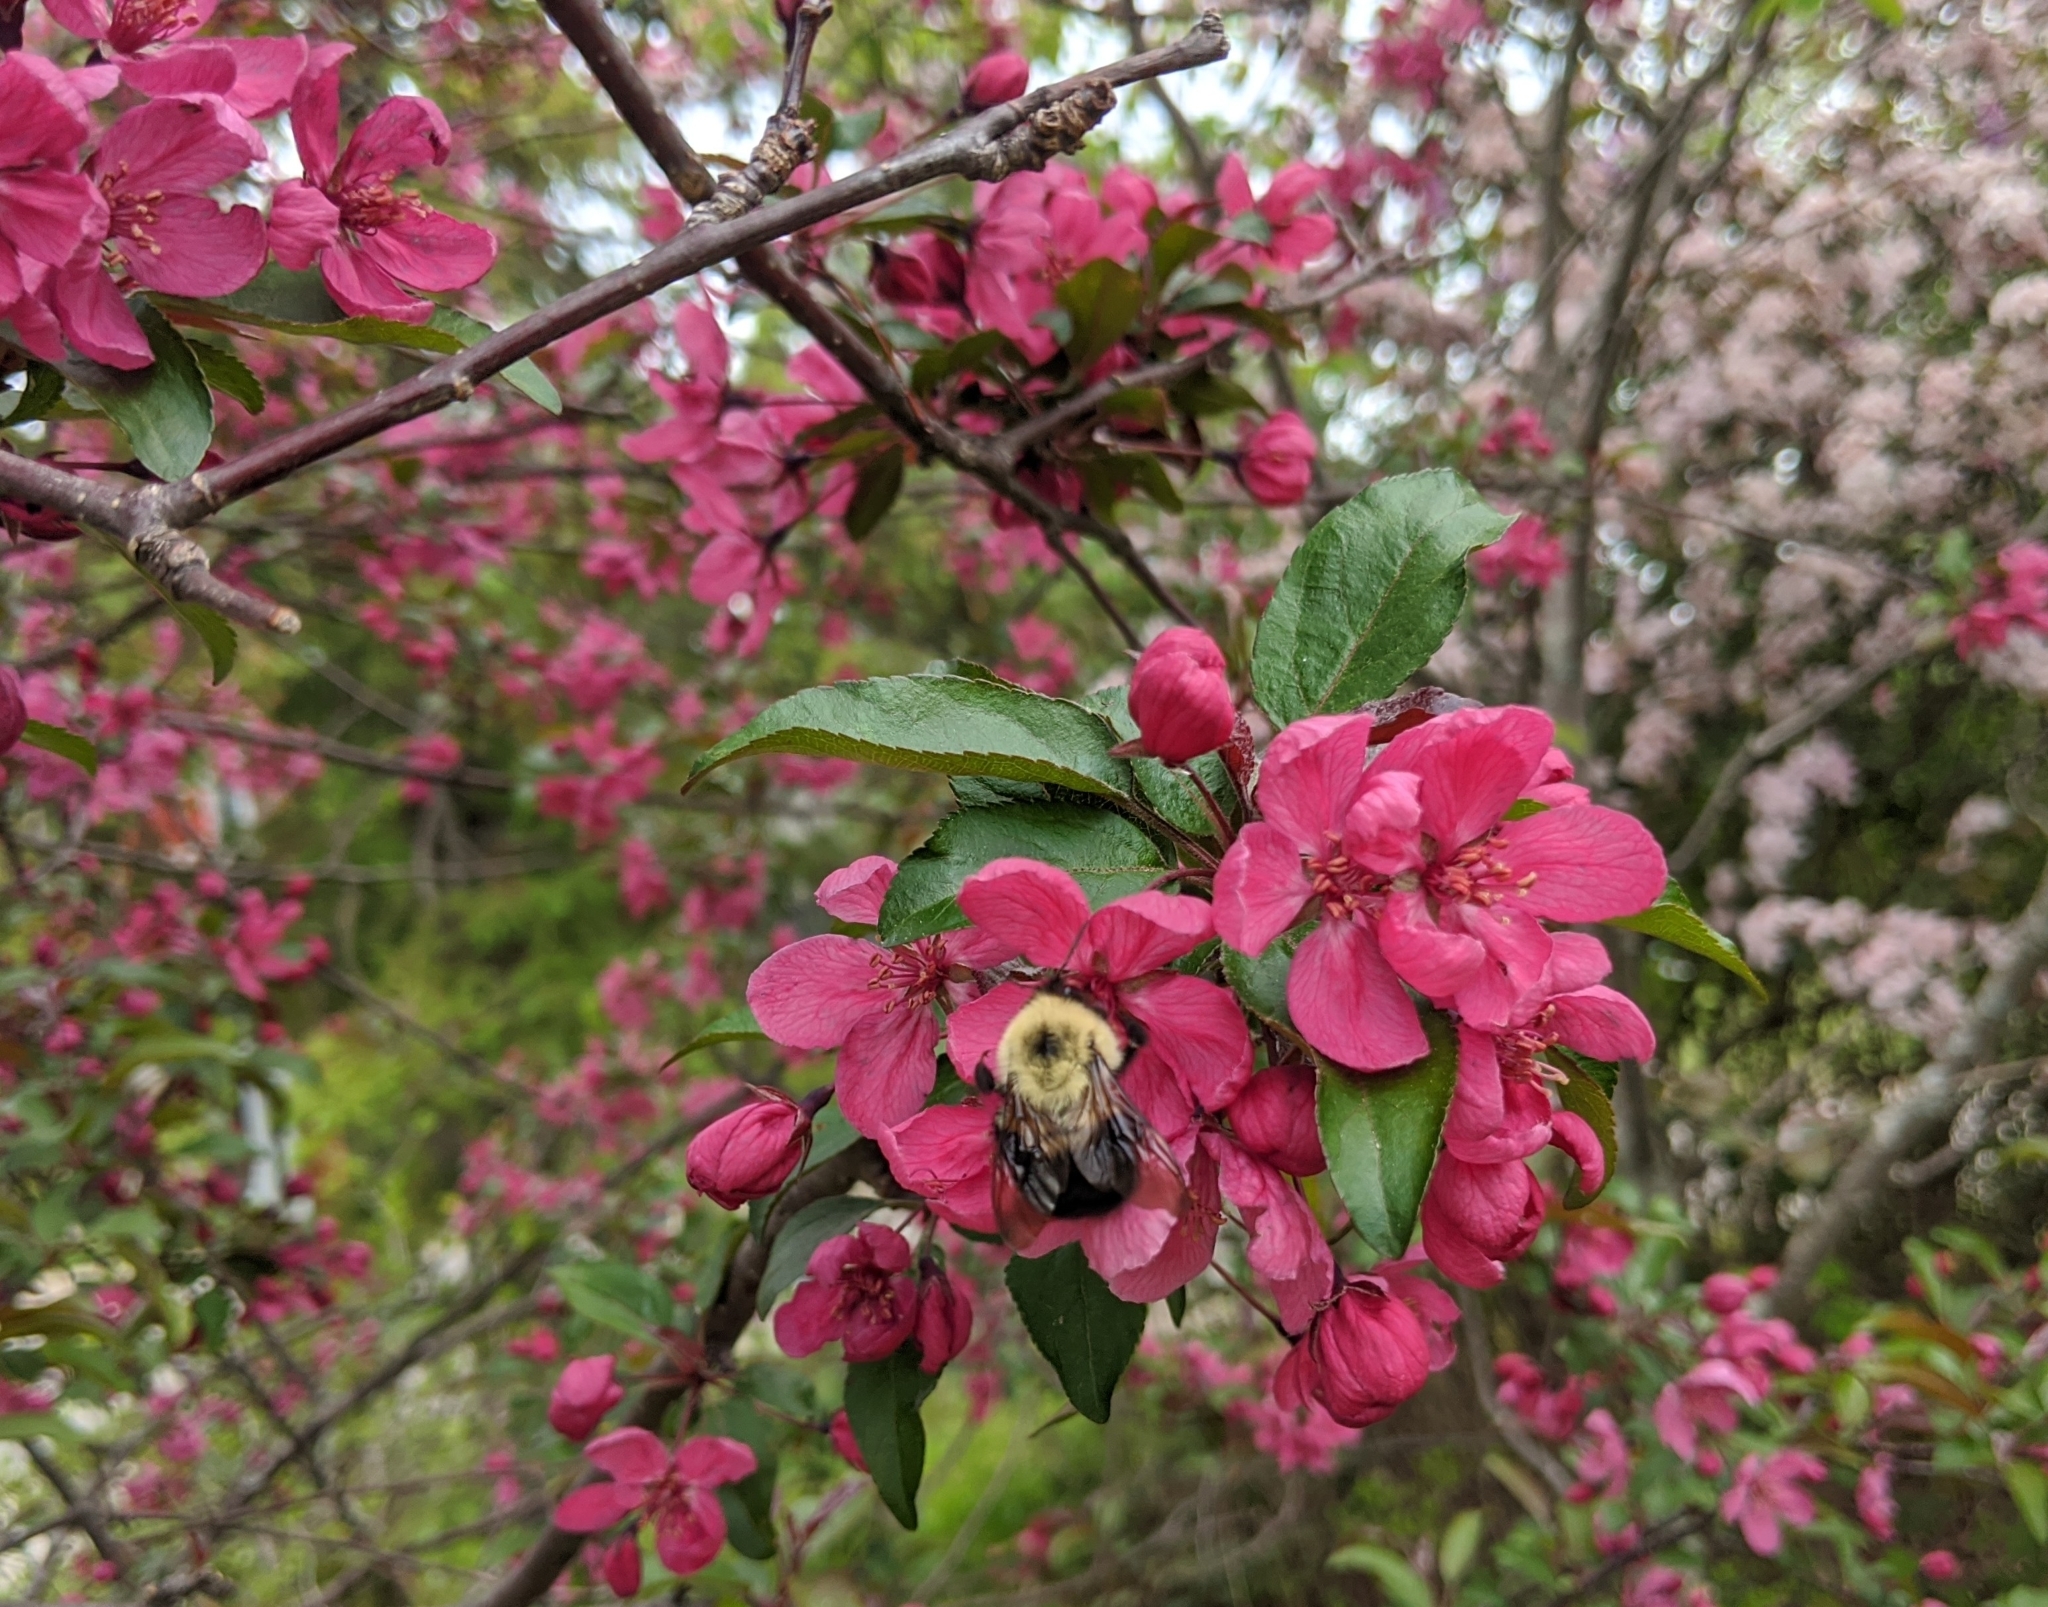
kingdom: Animalia
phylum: Arthropoda
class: Insecta
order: Hymenoptera
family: Apidae
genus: Bombus
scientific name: Bombus bimaculatus
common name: Two-spotted bumble bee
